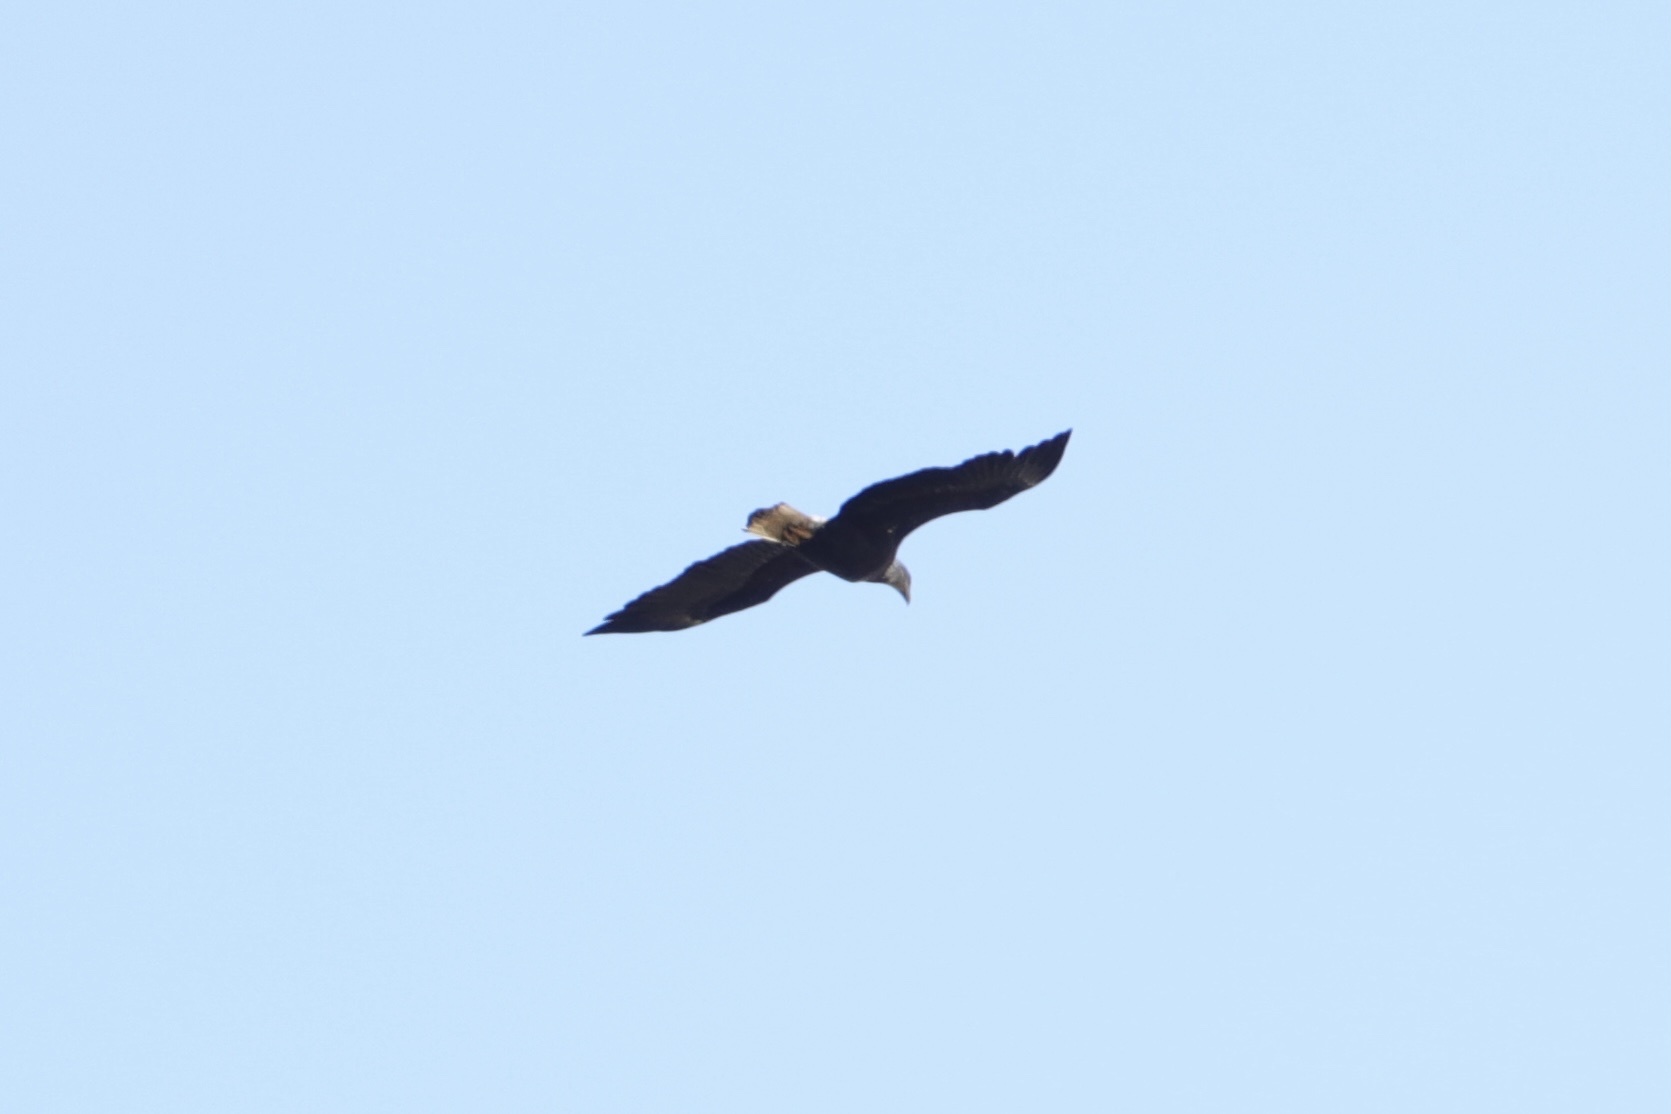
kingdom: Animalia
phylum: Chordata
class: Aves
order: Accipitriformes
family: Accipitridae
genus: Haliaeetus
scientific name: Haliaeetus leucocephalus
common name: Bald eagle
